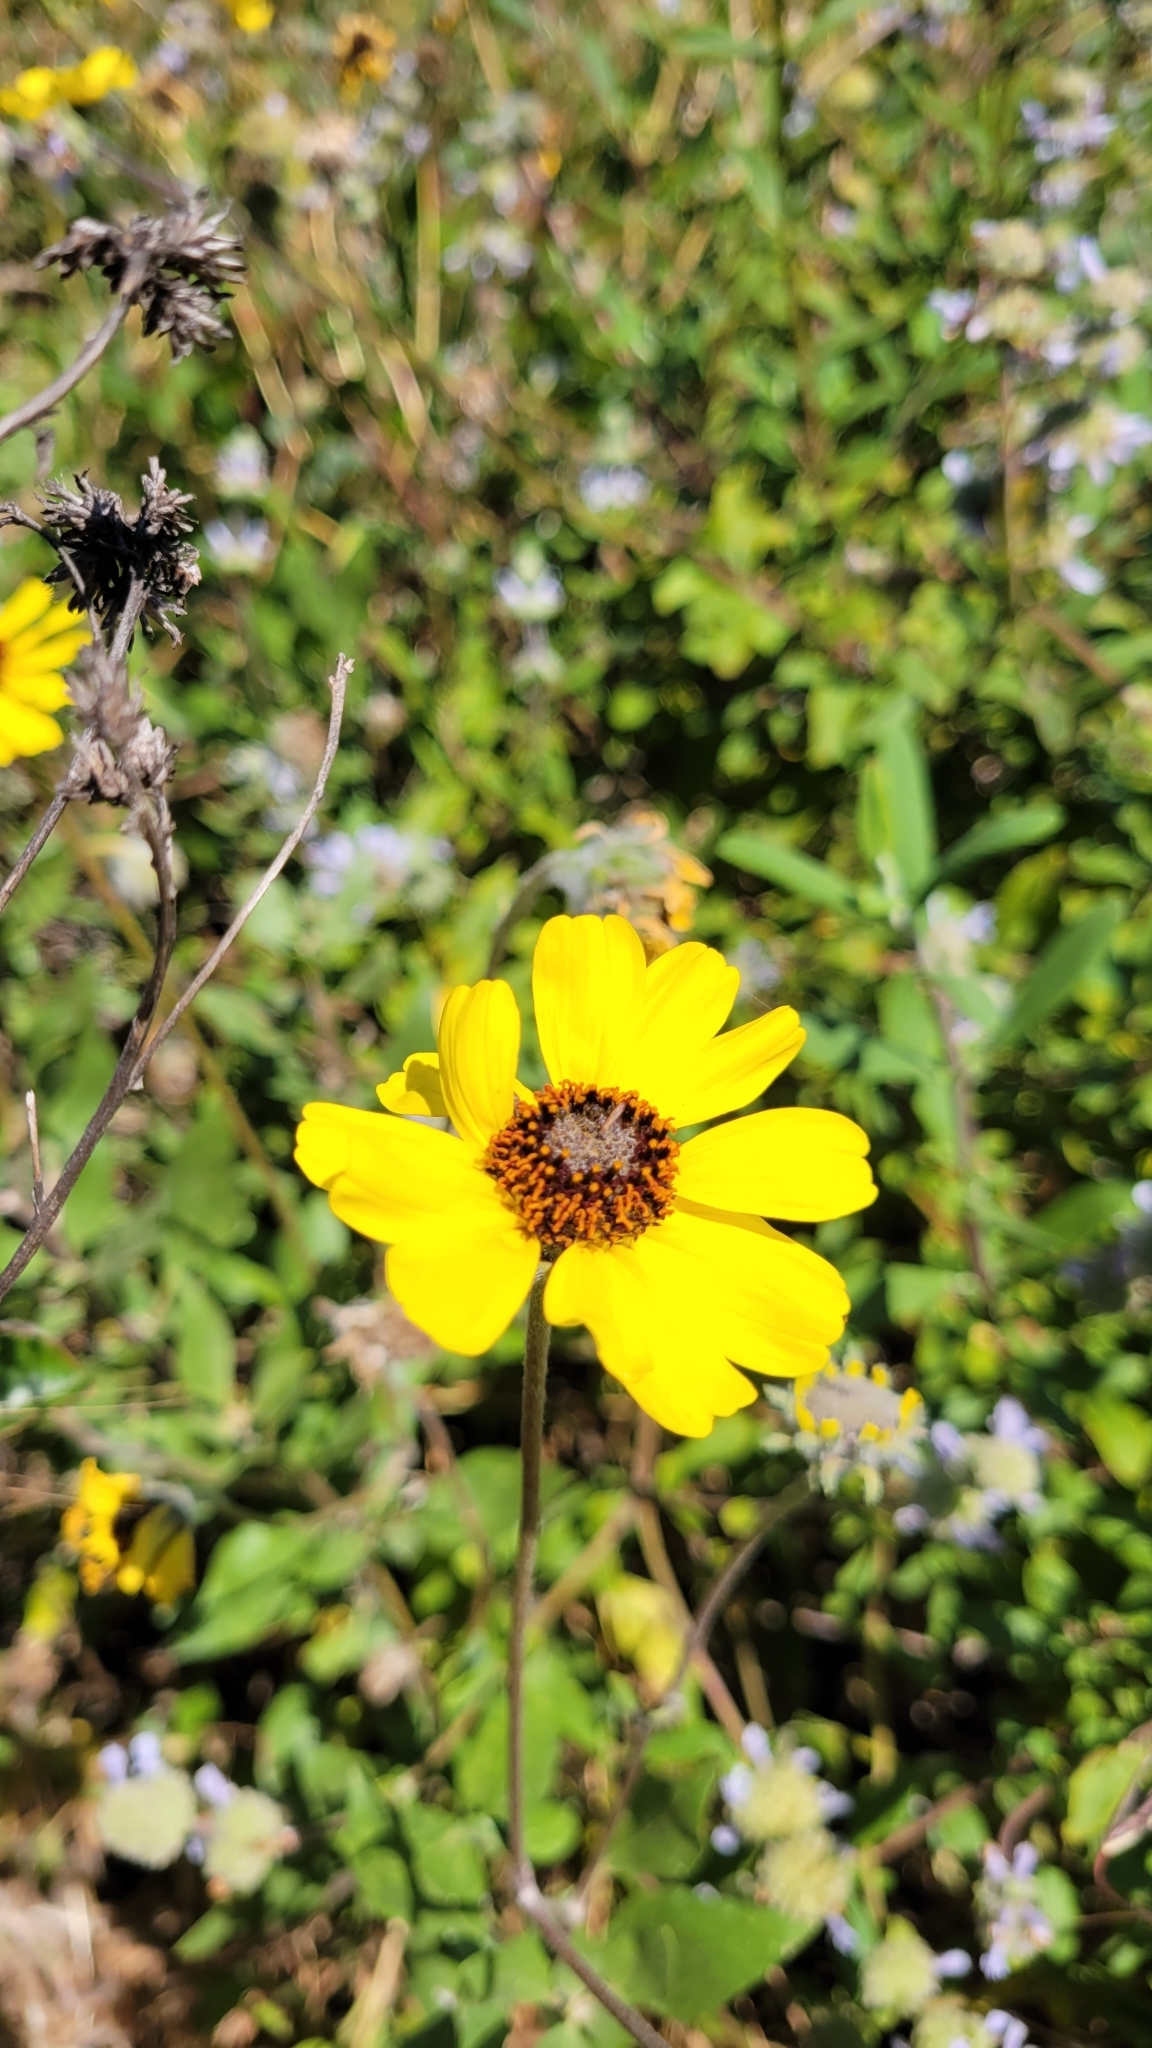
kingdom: Plantae
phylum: Tracheophyta
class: Magnoliopsida
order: Asterales
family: Asteraceae
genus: Encelia
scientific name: Encelia californica
